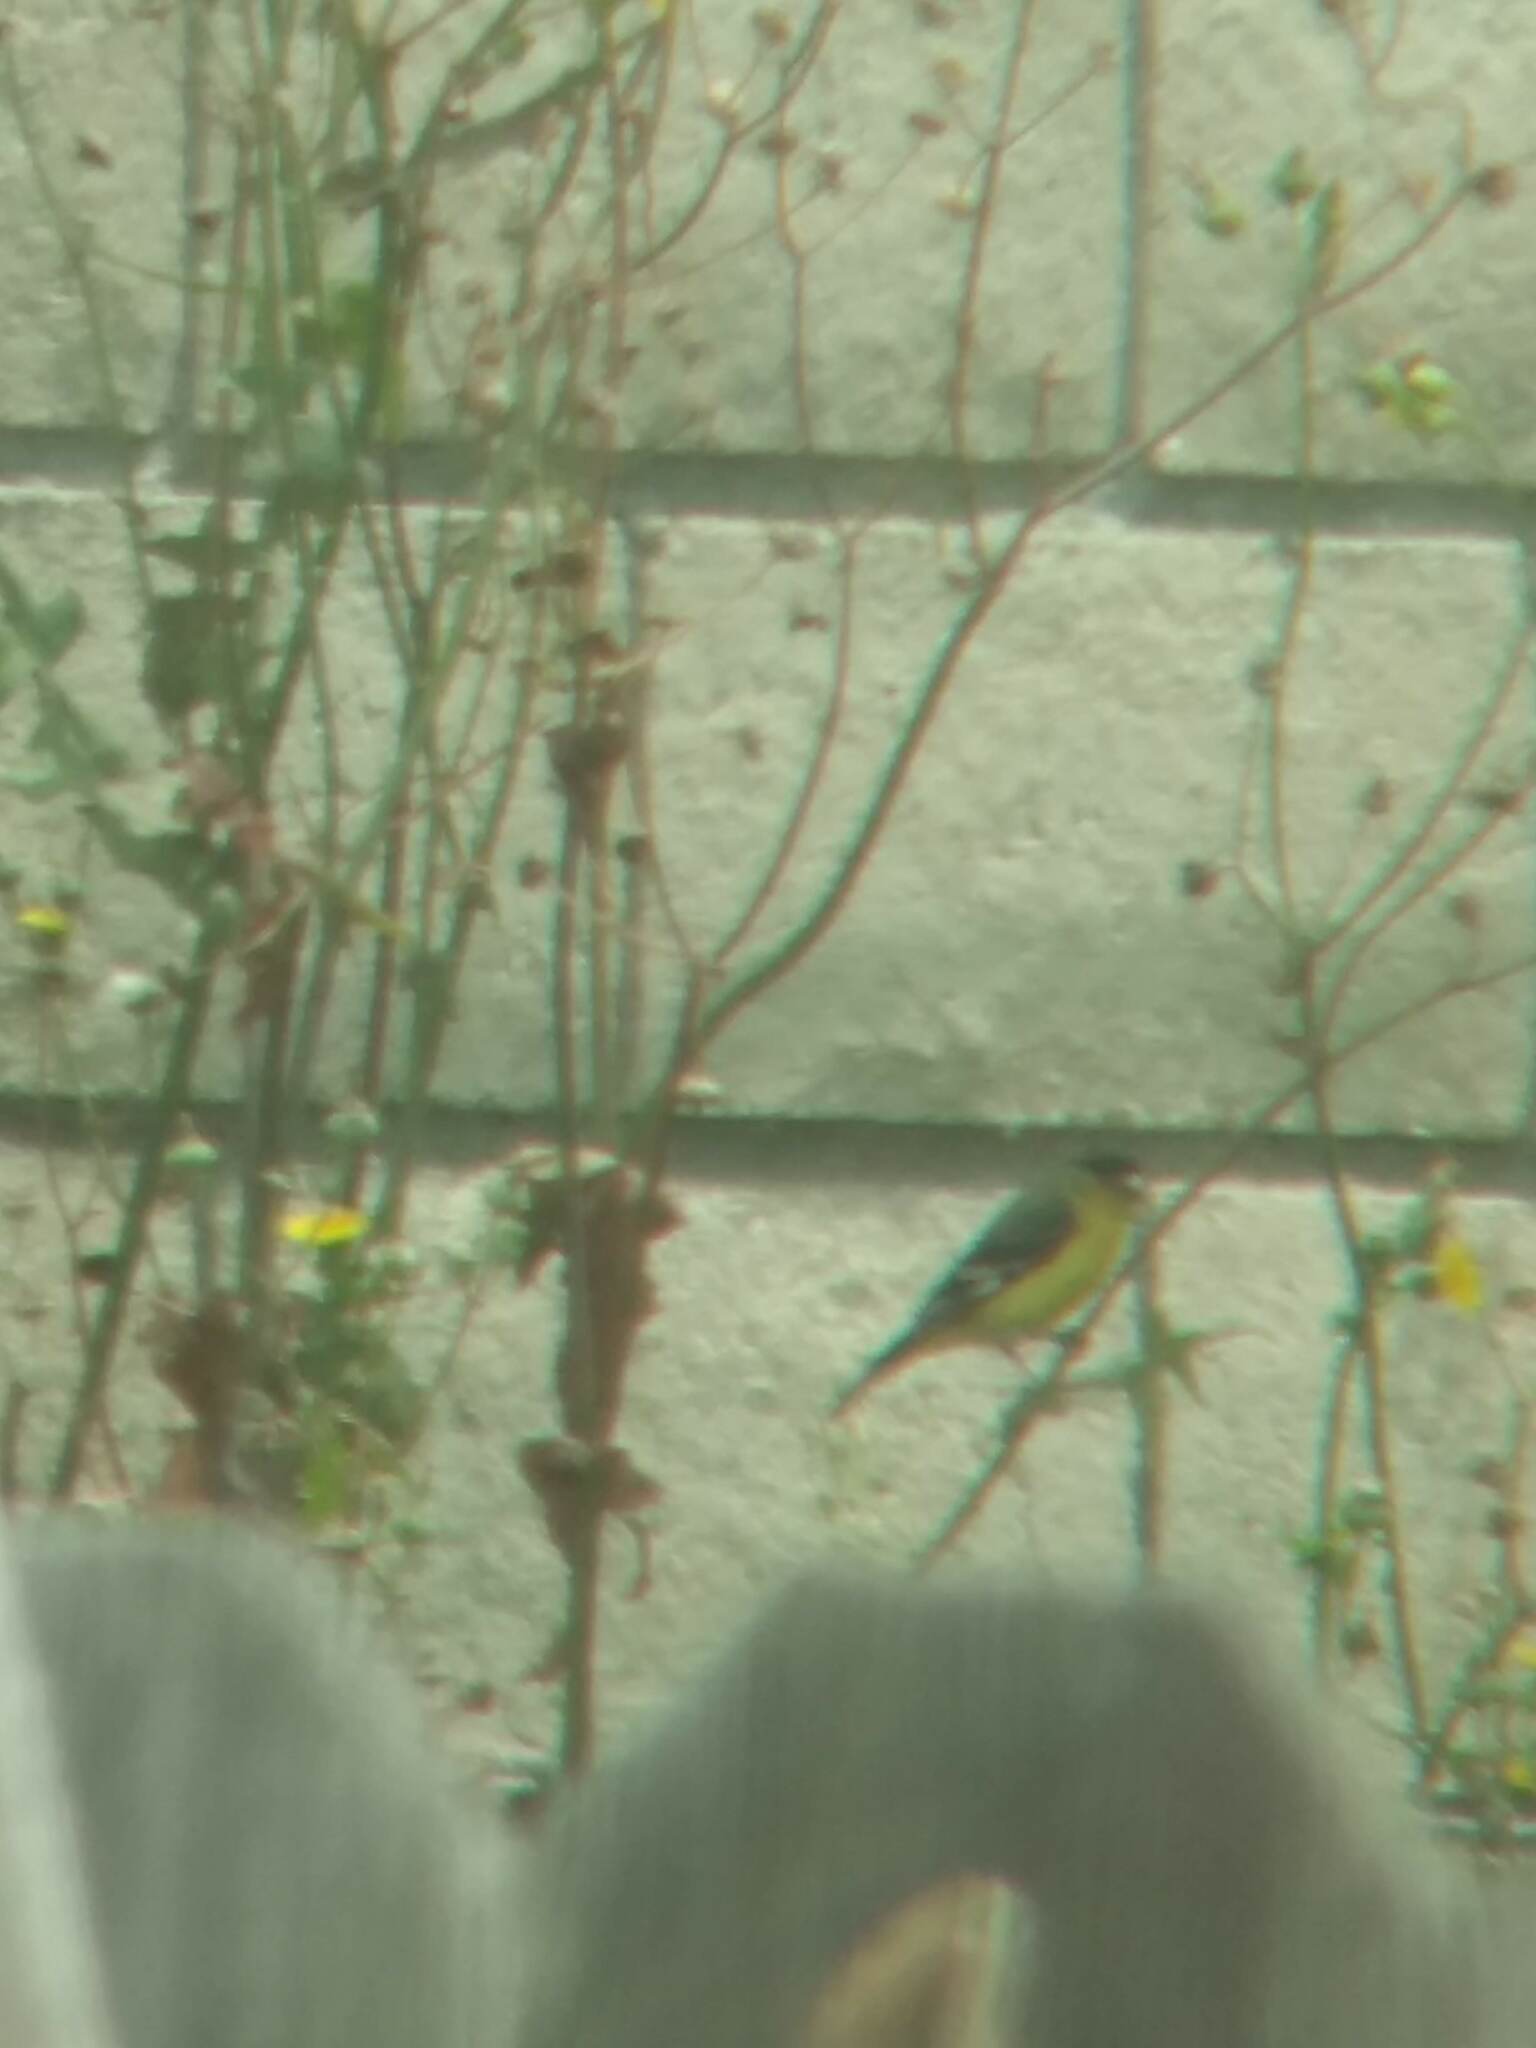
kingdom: Animalia
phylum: Chordata
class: Aves
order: Passeriformes
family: Fringillidae
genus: Spinus
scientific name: Spinus psaltria
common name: Lesser goldfinch
